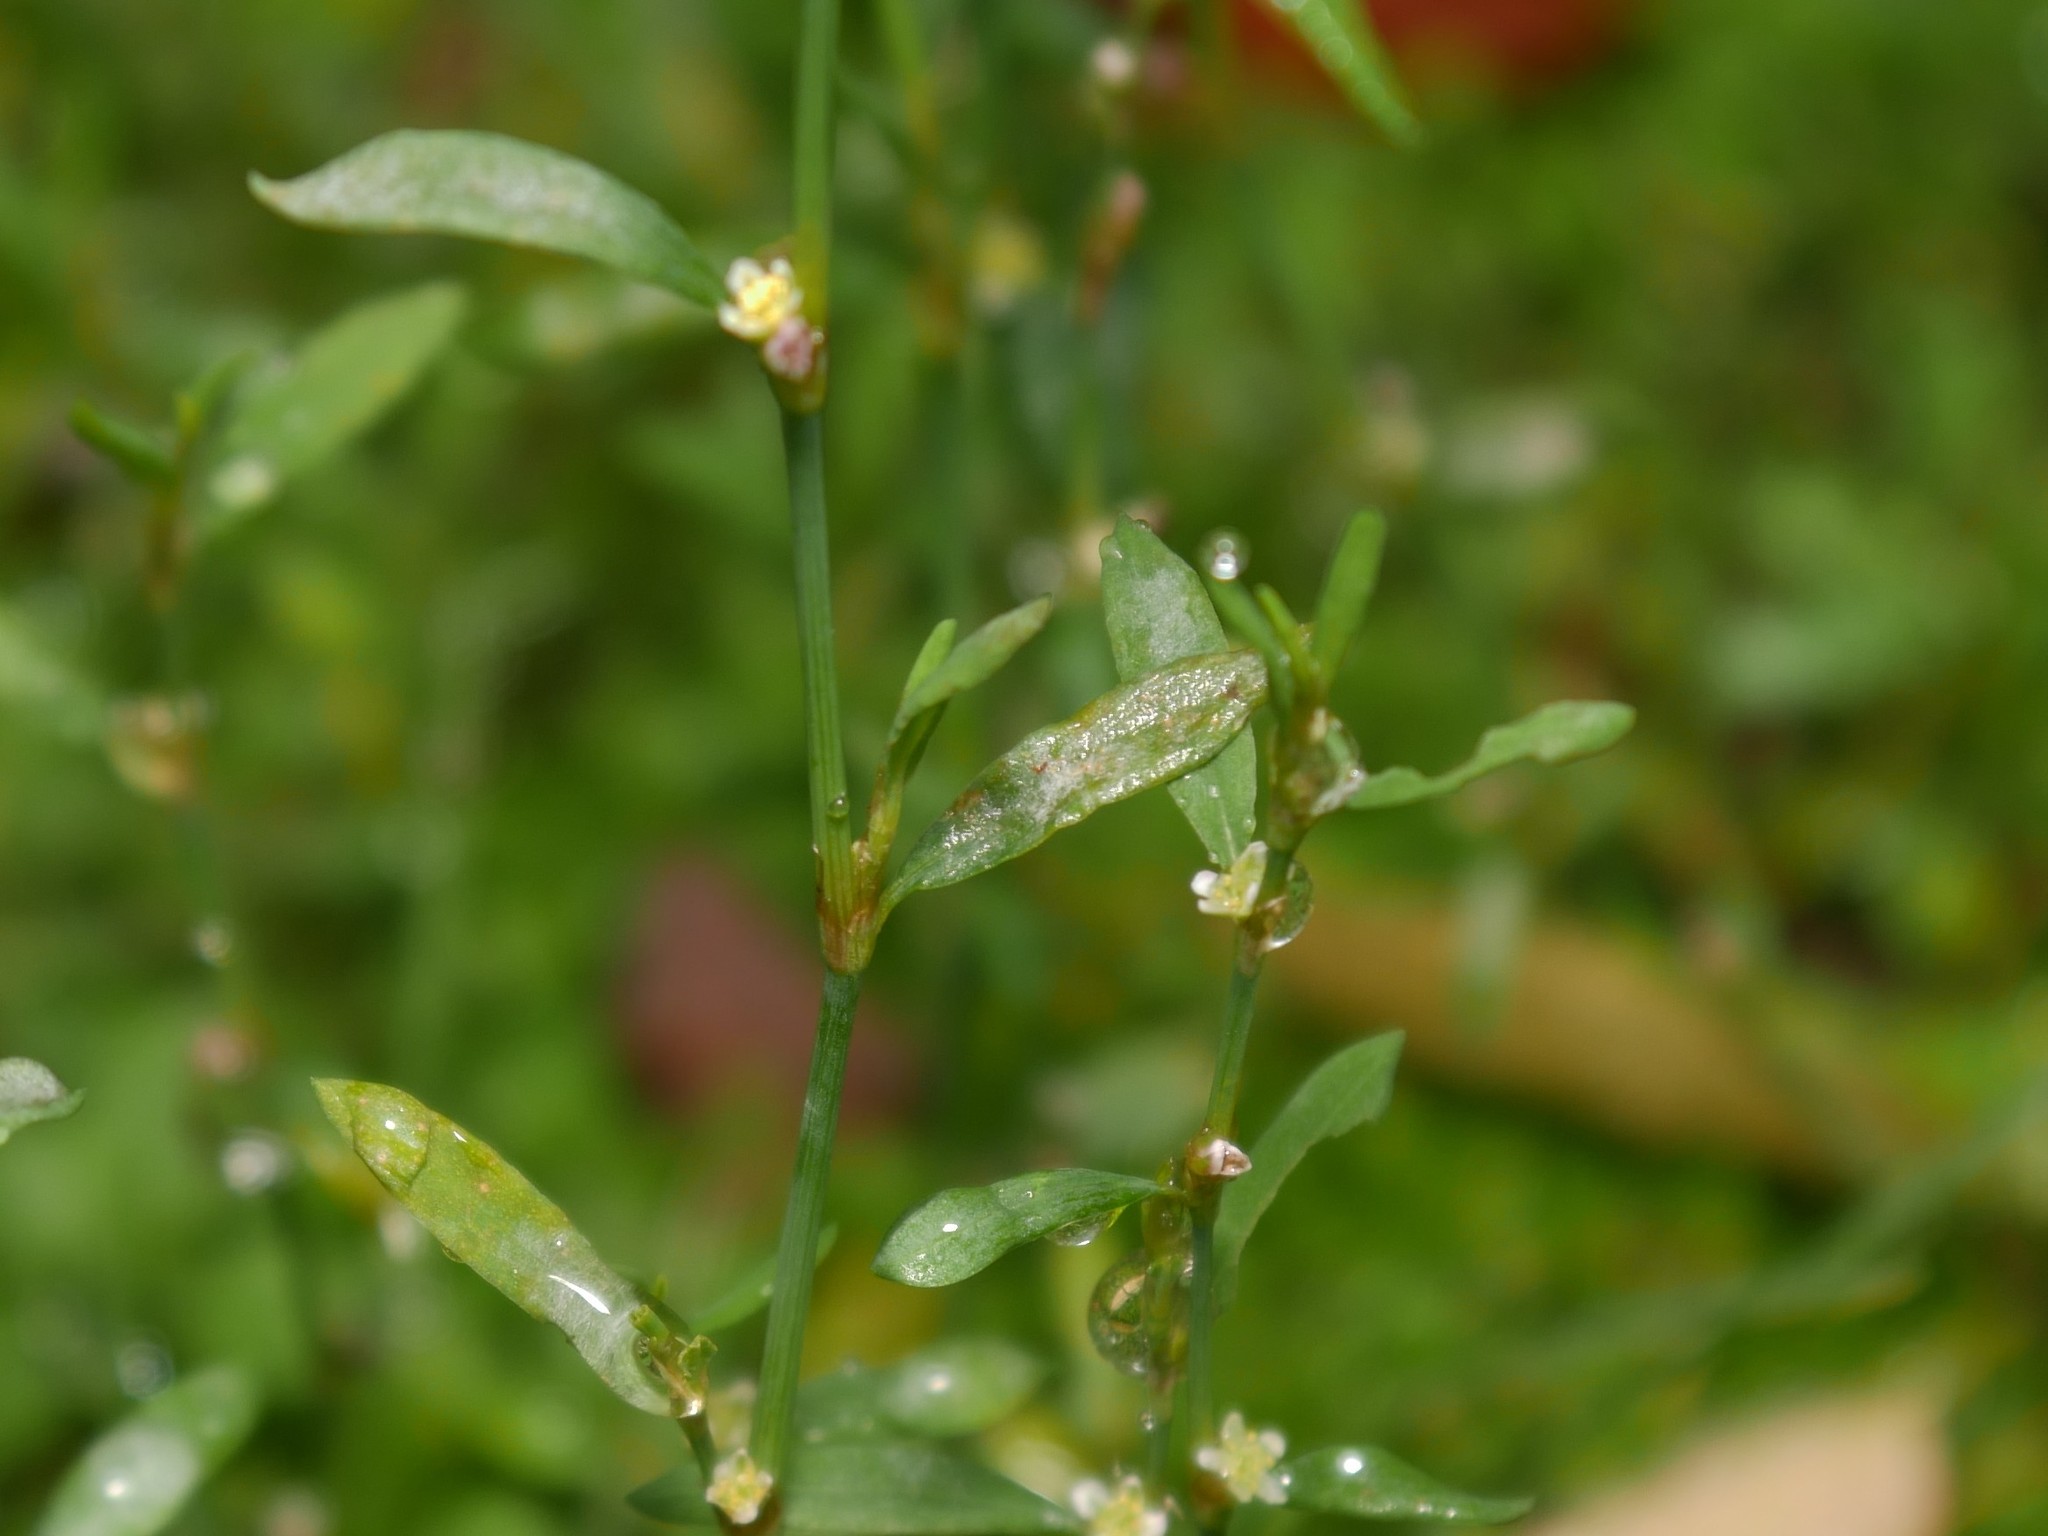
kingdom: Fungi
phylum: Ascomycota
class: Leotiomycetes
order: Helotiales
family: Erysiphaceae
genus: Erysiphe
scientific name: Erysiphe polygoni
